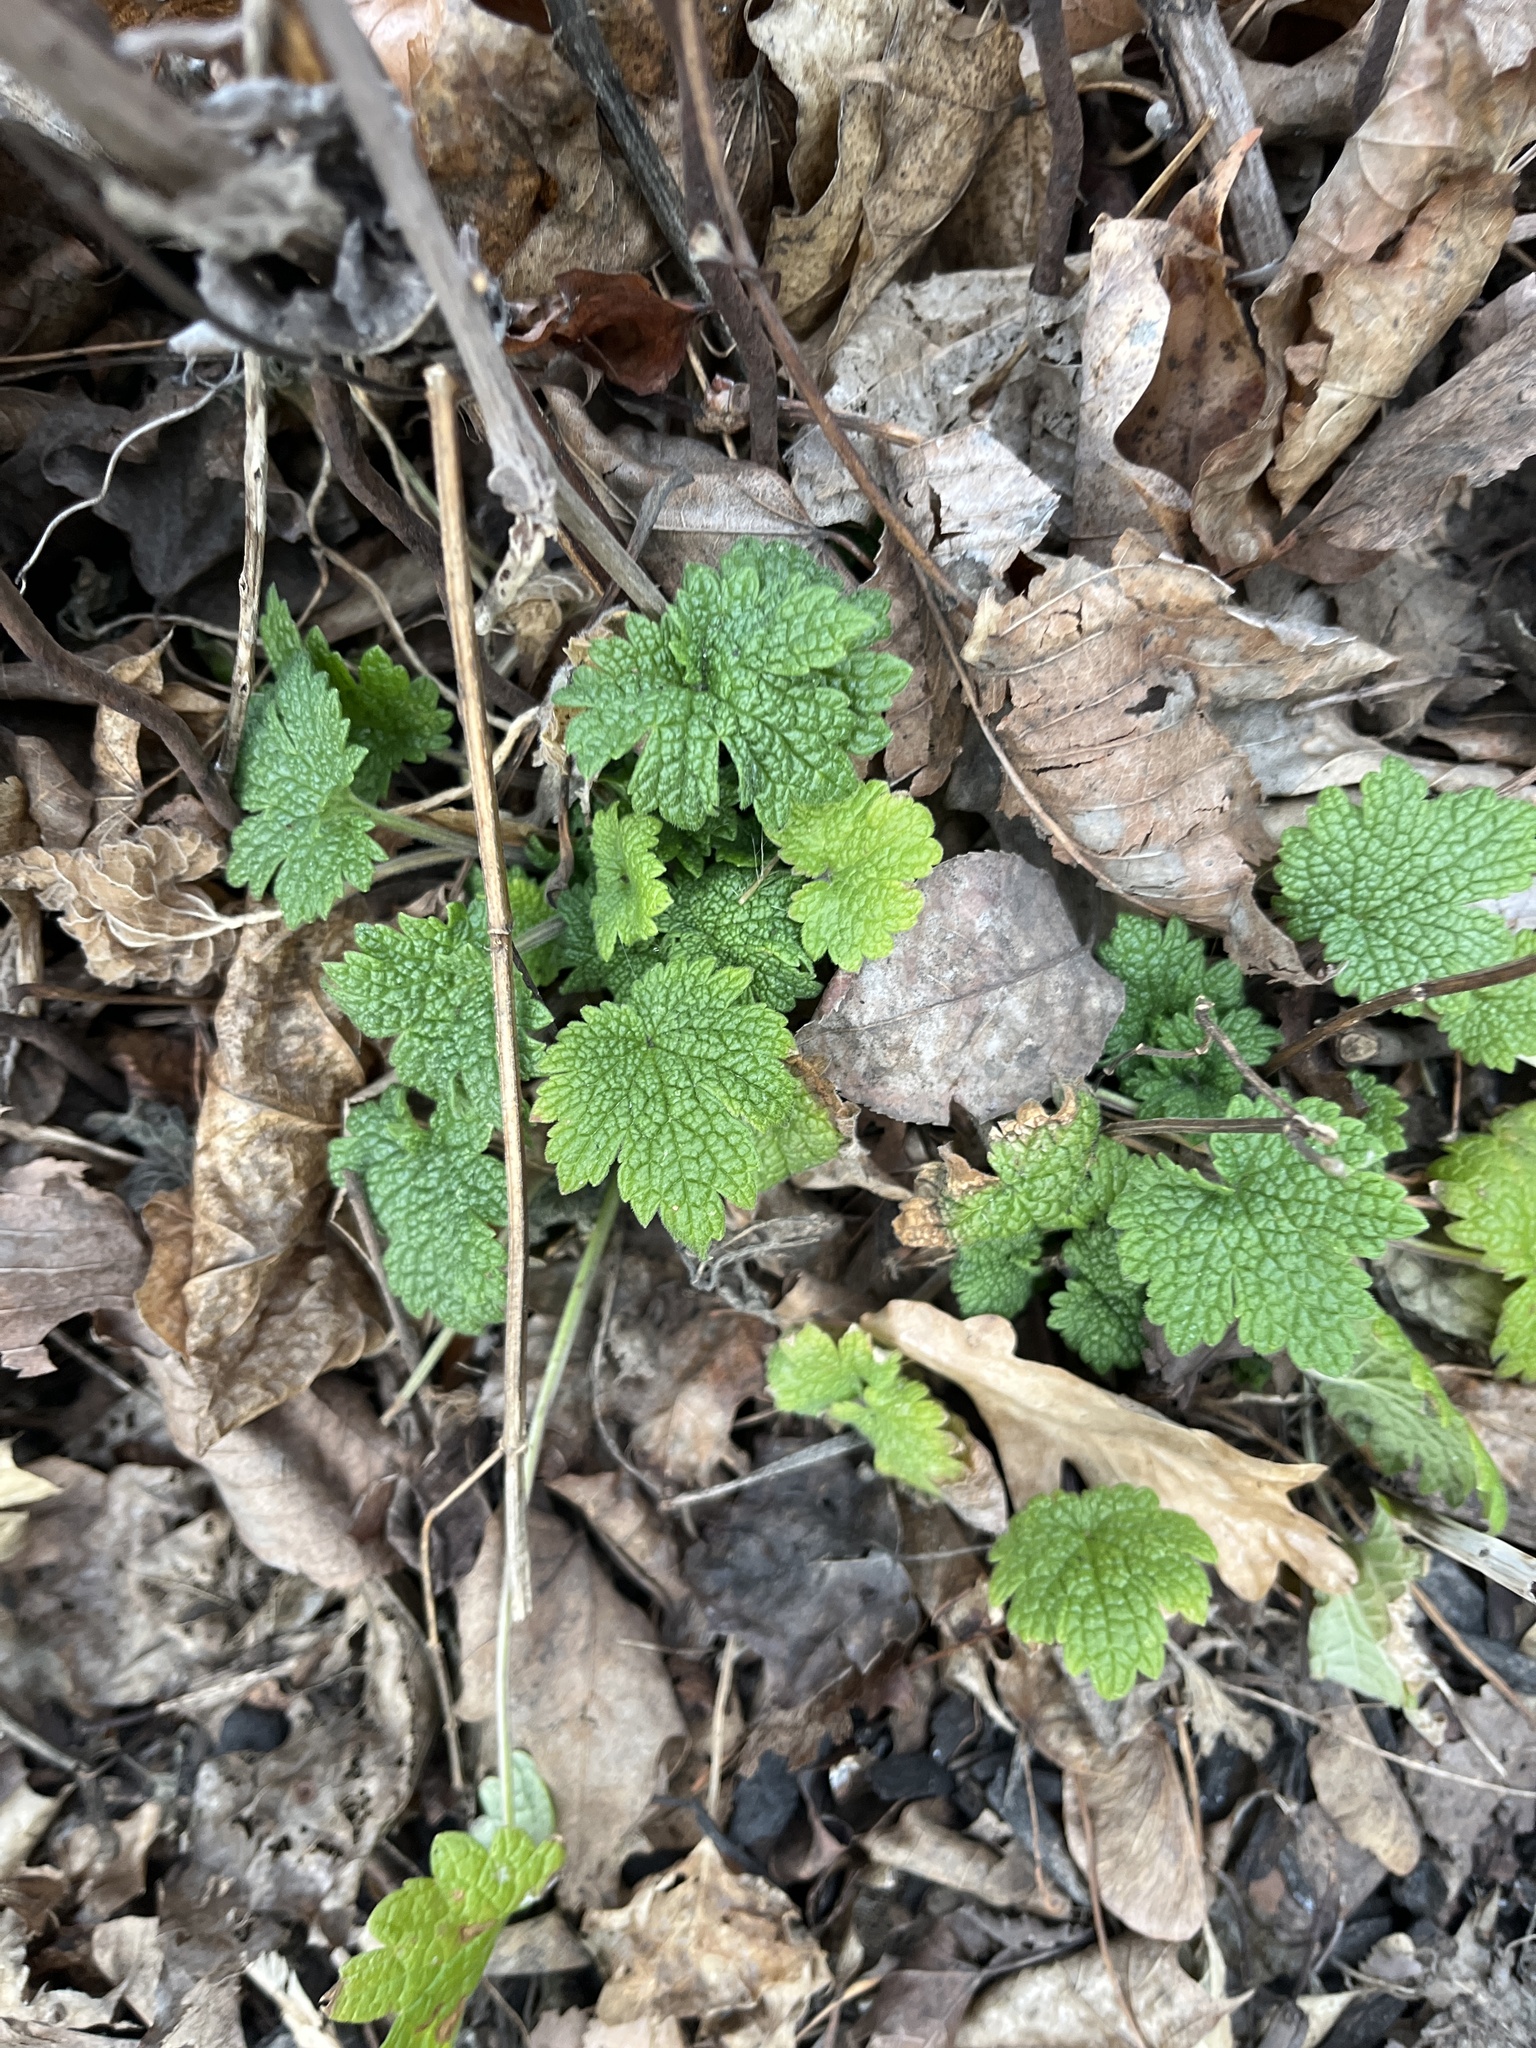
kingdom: Plantae
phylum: Tracheophyta
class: Magnoliopsida
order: Lamiales
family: Lamiaceae
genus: Leonurus
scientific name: Leonurus cardiaca
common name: Motherwort
